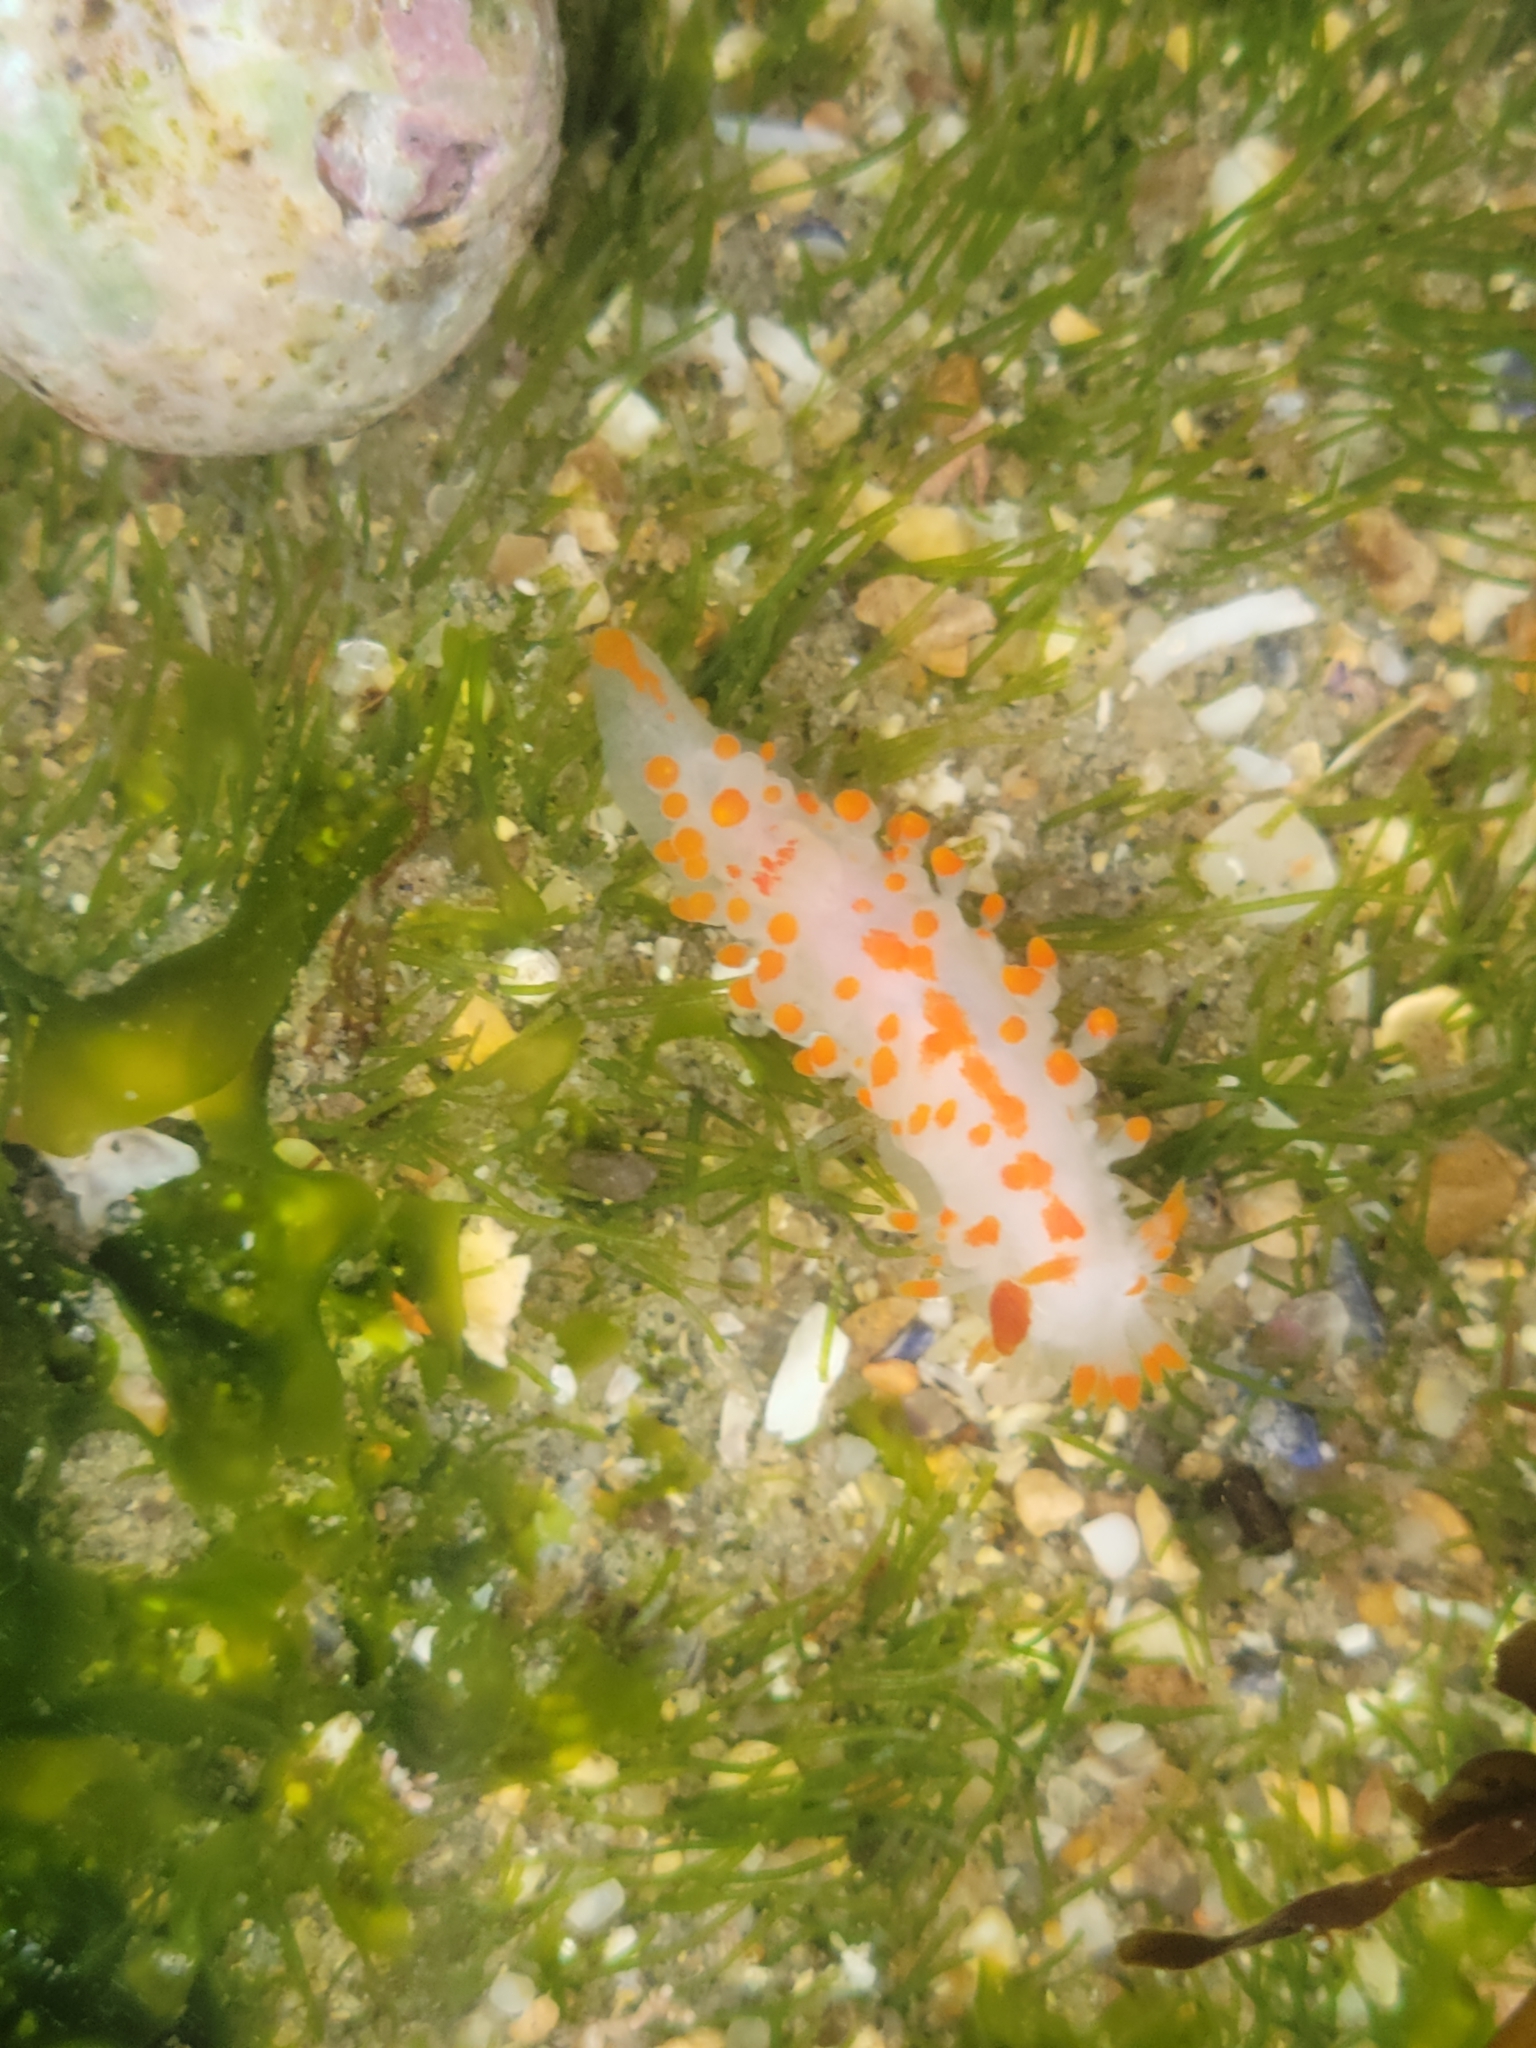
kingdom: Animalia
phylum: Mollusca
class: Gastropoda
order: Nudibranchia
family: Polyceridae
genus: Limacia
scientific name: Limacia mcdonaldi
